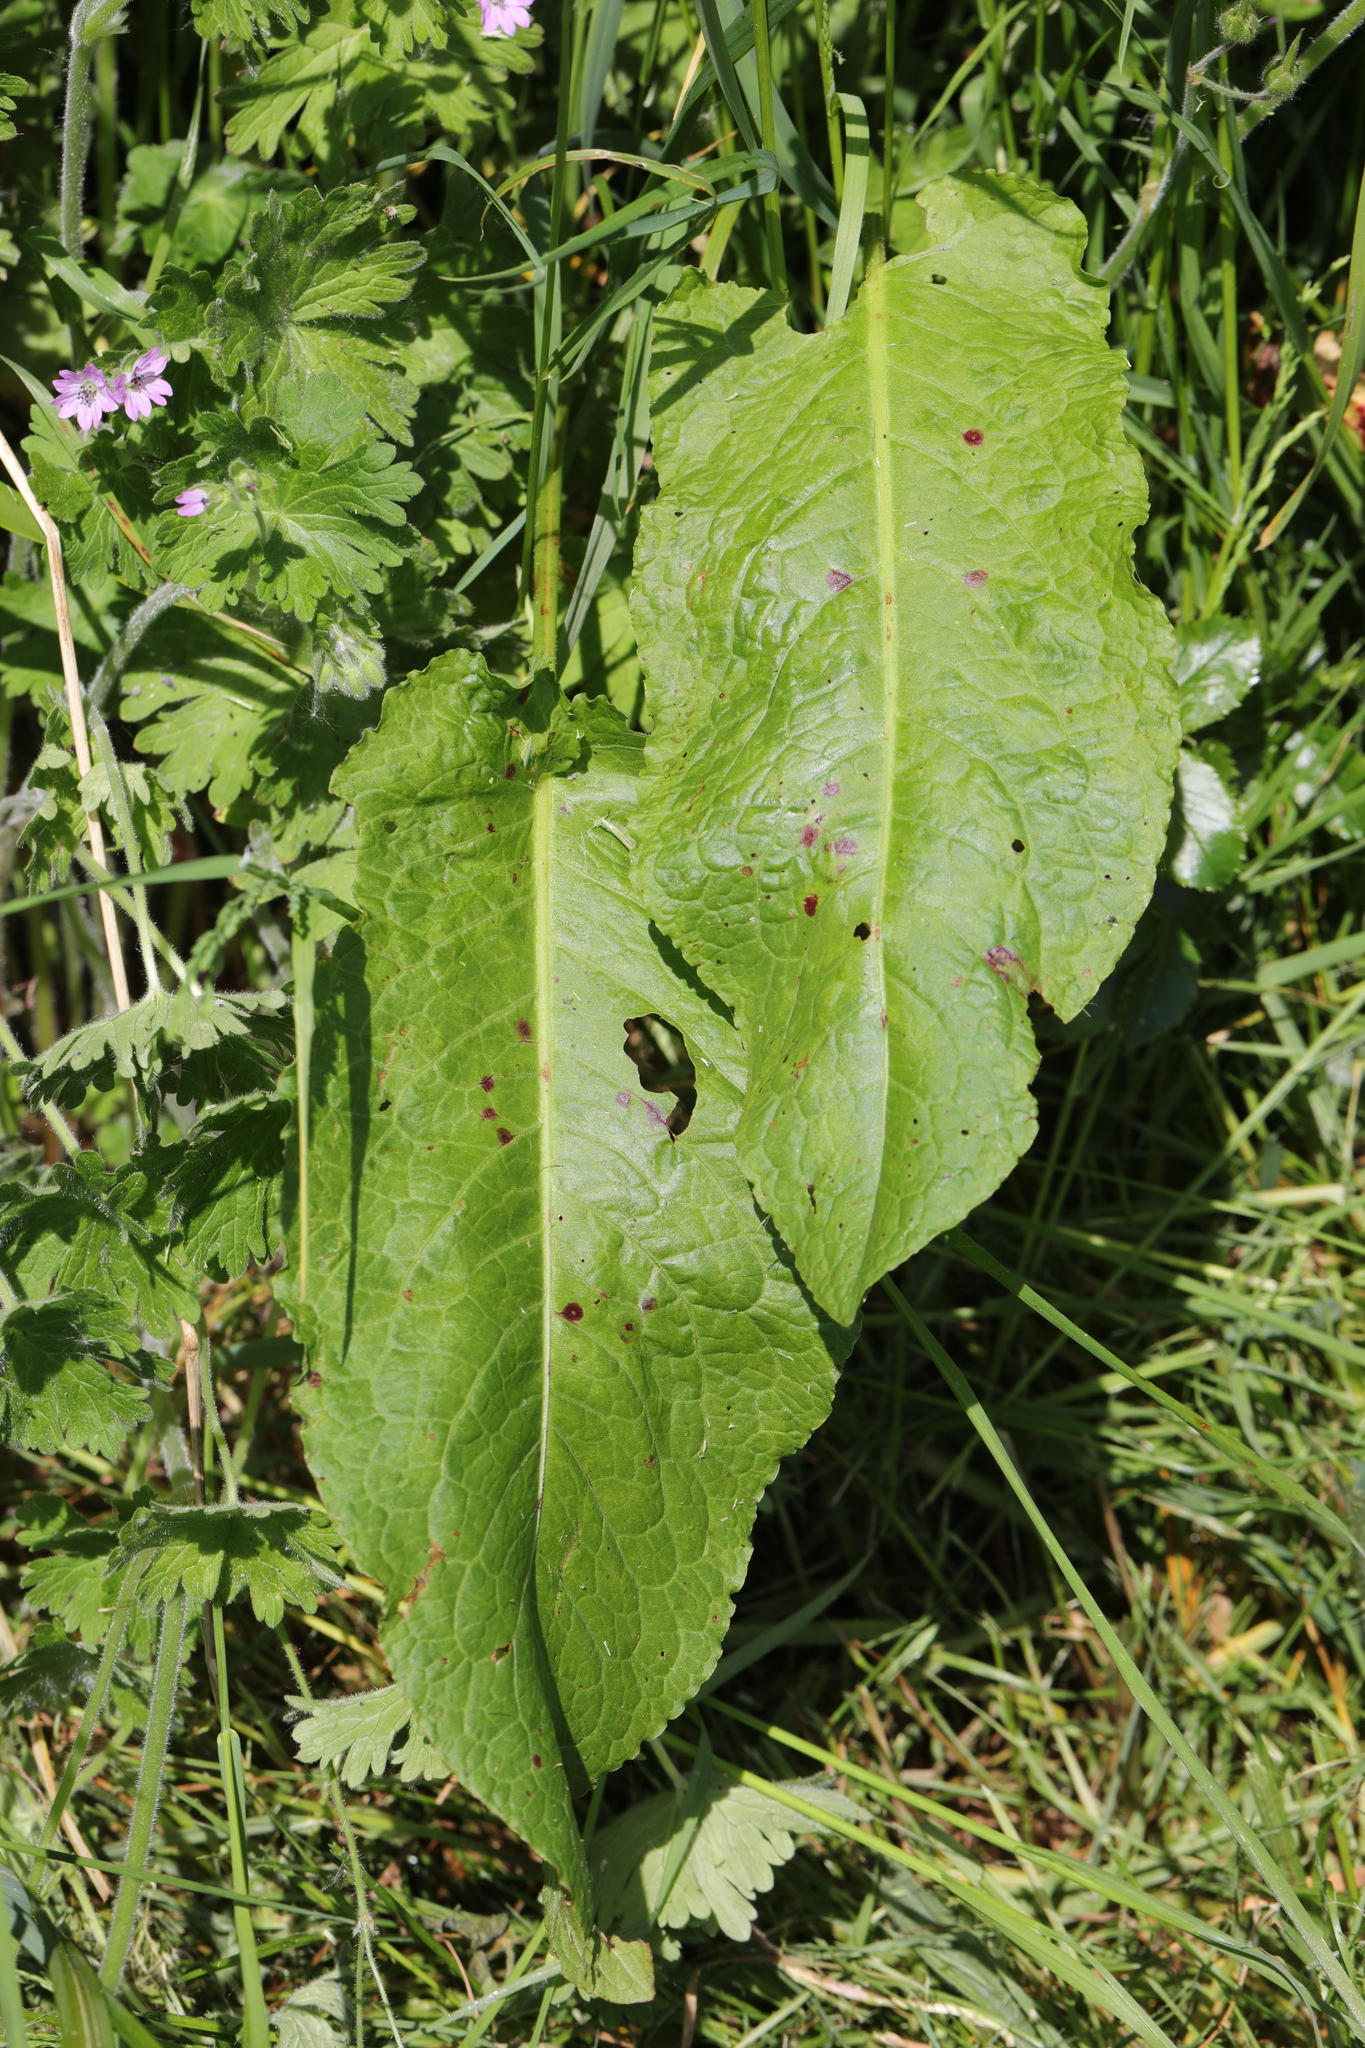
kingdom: Plantae
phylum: Tracheophyta
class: Magnoliopsida
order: Caryophyllales
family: Polygonaceae
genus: Rumex
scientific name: Rumex obtusifolius
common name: Bitter dock
